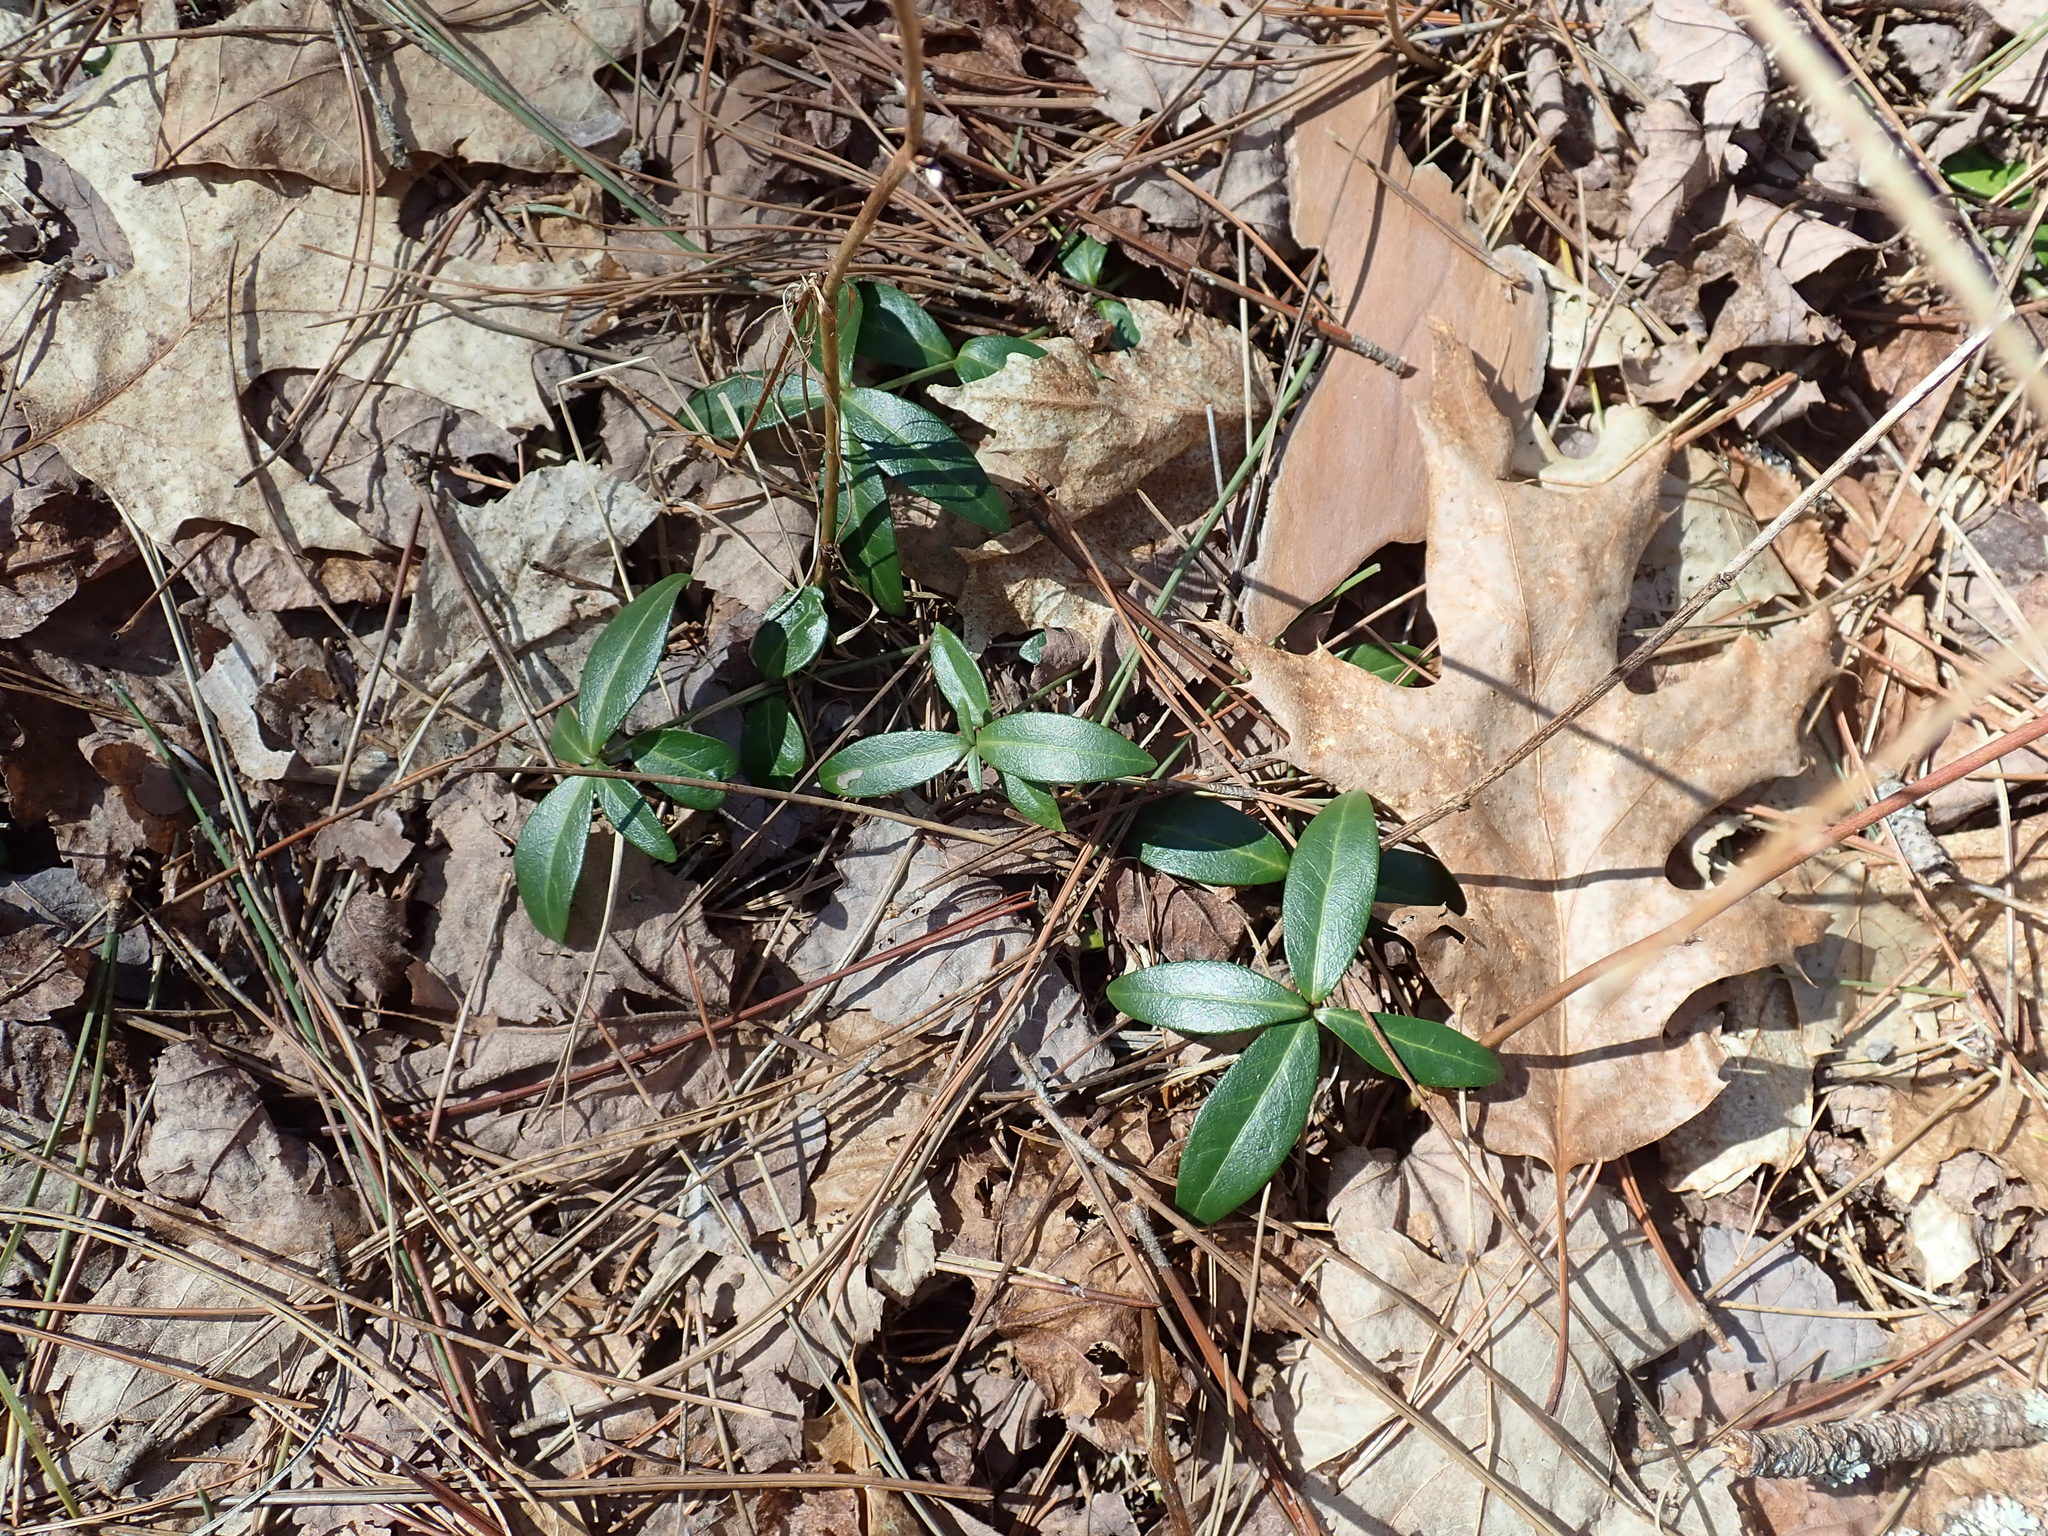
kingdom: Plantae
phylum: Tracheophyta
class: Magnoliopsida
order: Gentianales
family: Apocynaceae
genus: Vinca
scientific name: Vinca minor
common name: Lesser periwinkle
